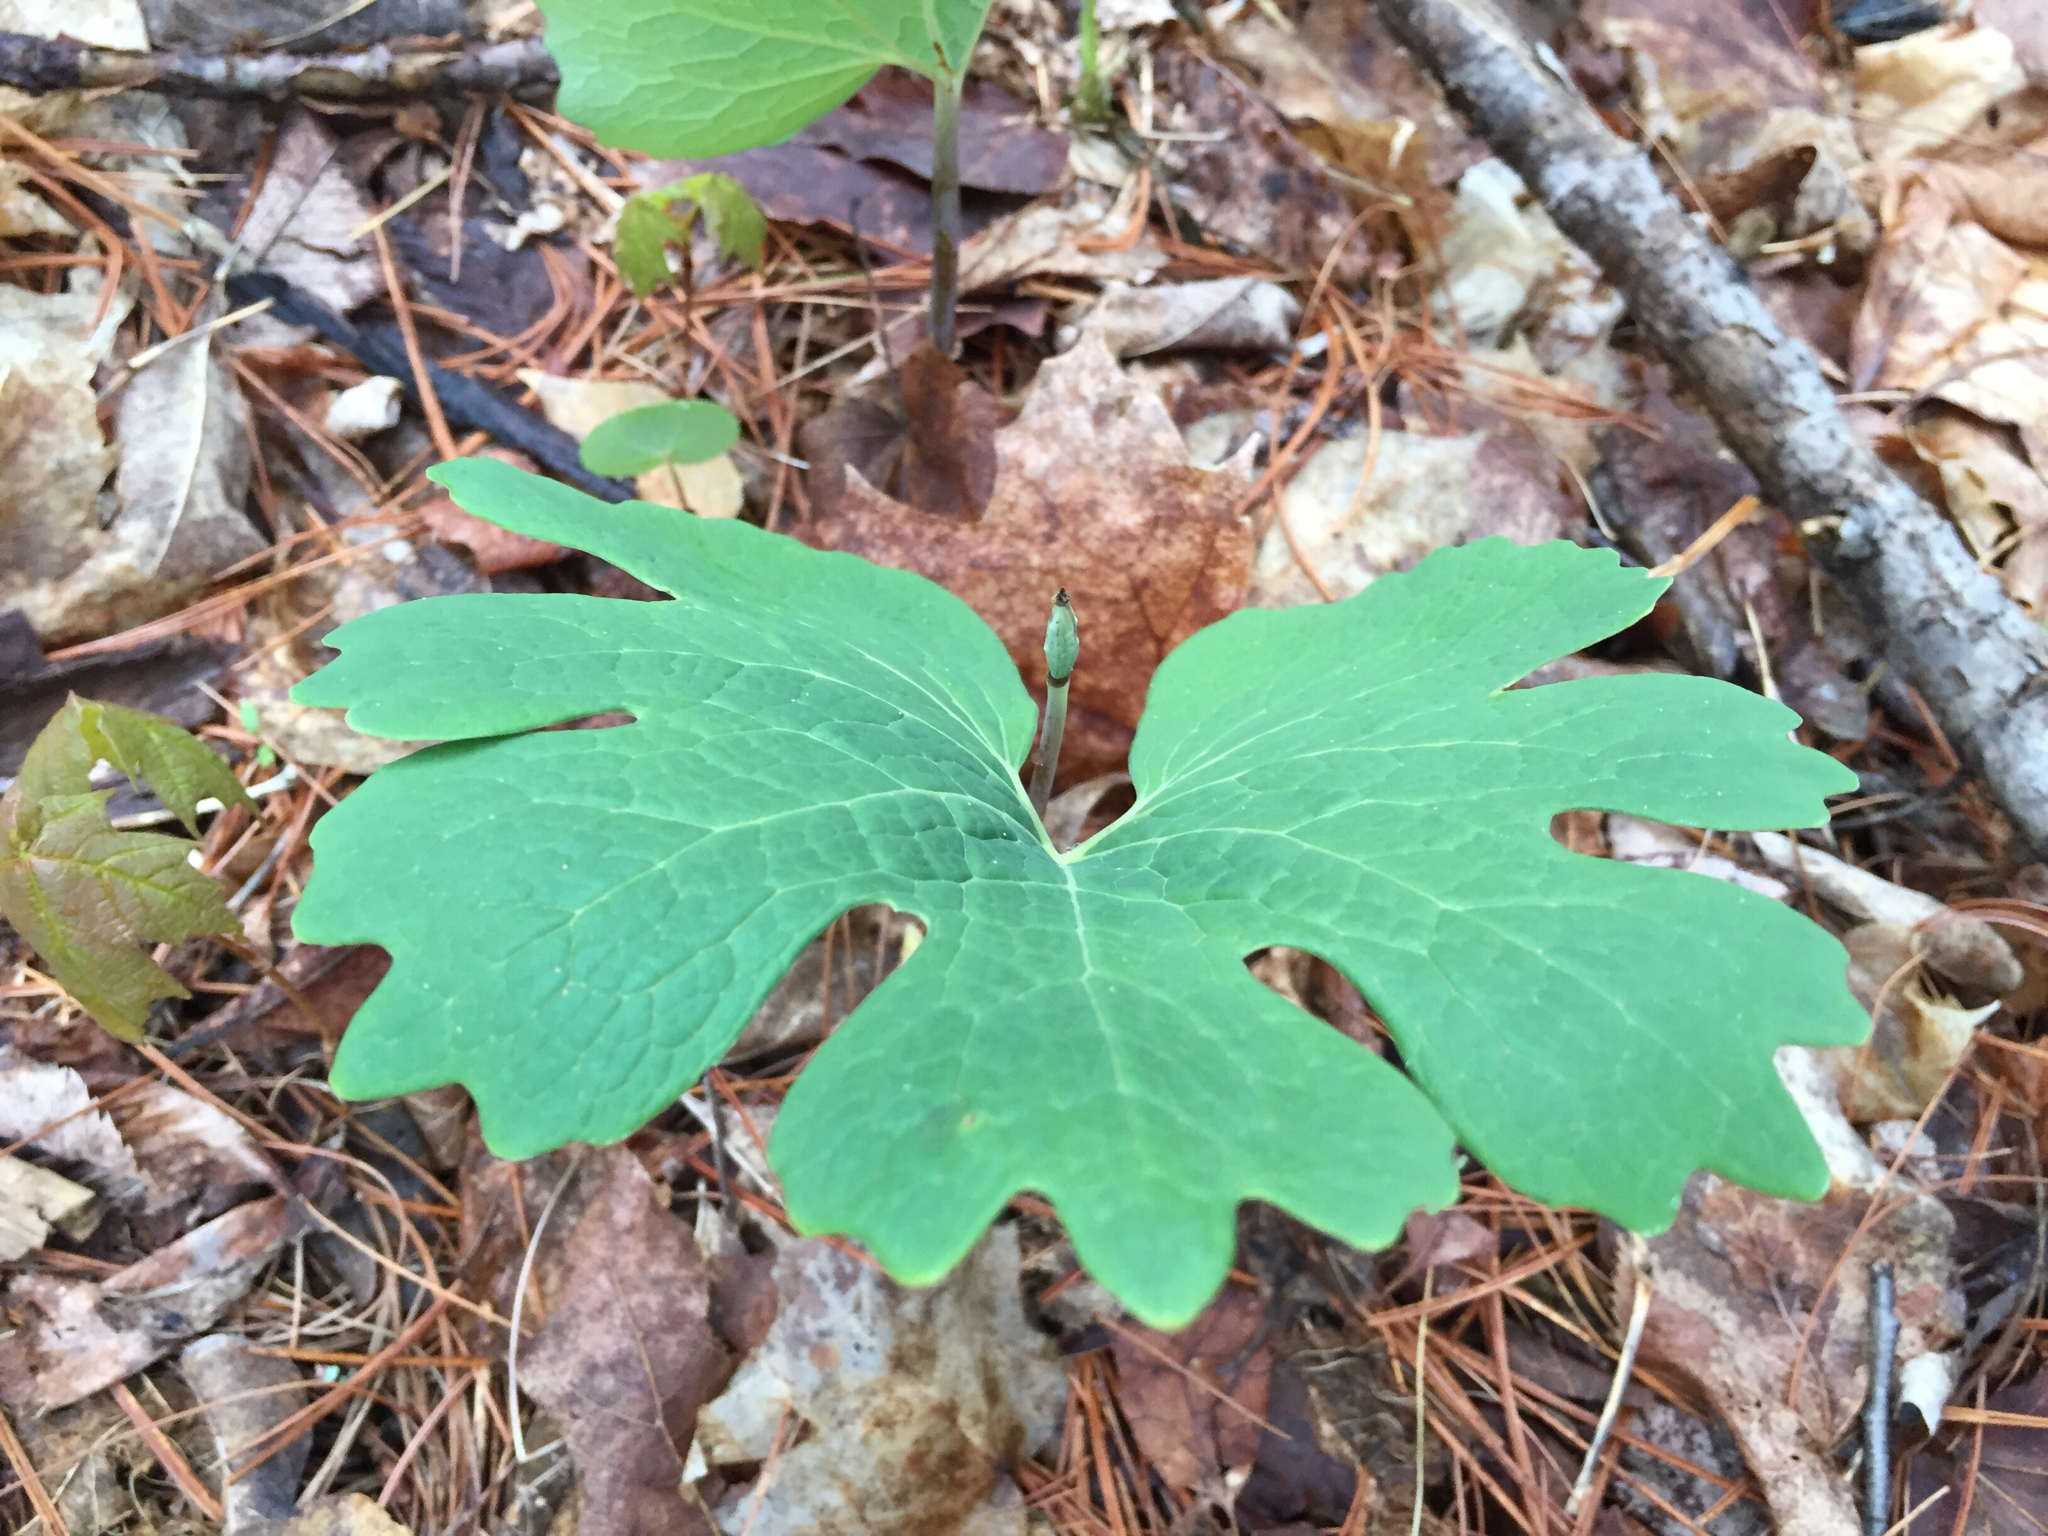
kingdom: Plantae
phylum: Tracheophyta
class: Magnoliopsida
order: Ranunculales
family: Papaveraceae
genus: Sanguinaria
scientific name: Sanguinaria canadensis
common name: Bloodroot
